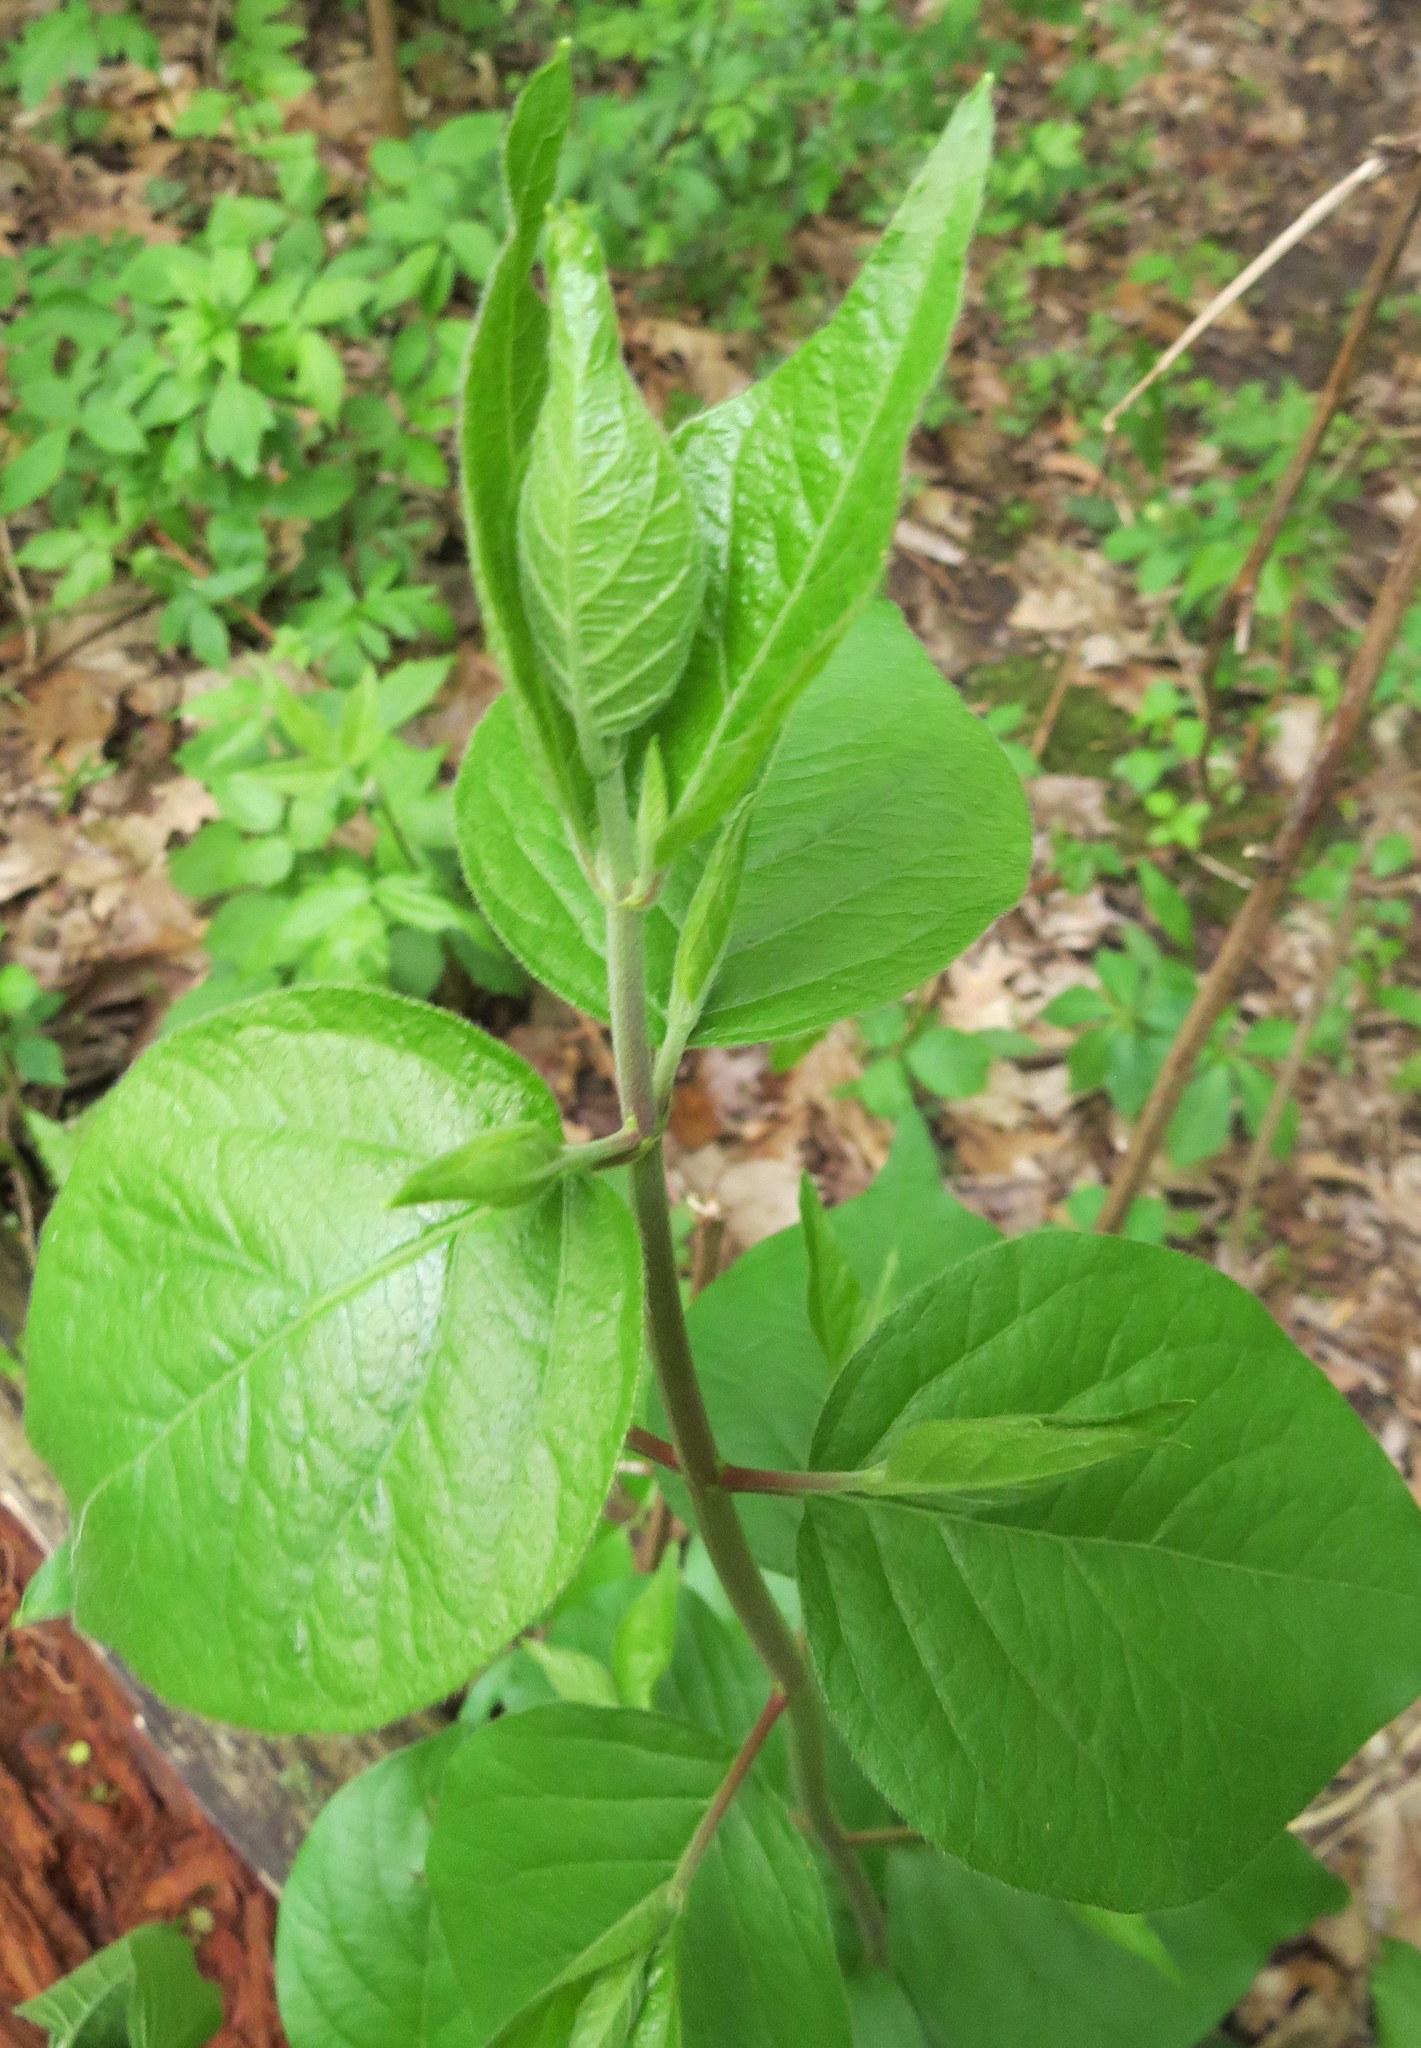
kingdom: Plantae
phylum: Tracheophyta
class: Magnoliopsida
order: Dipsacales
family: Caprifoliaceae
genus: Lonicera
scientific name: Lonicera maackii
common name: Amur honeysuckle
